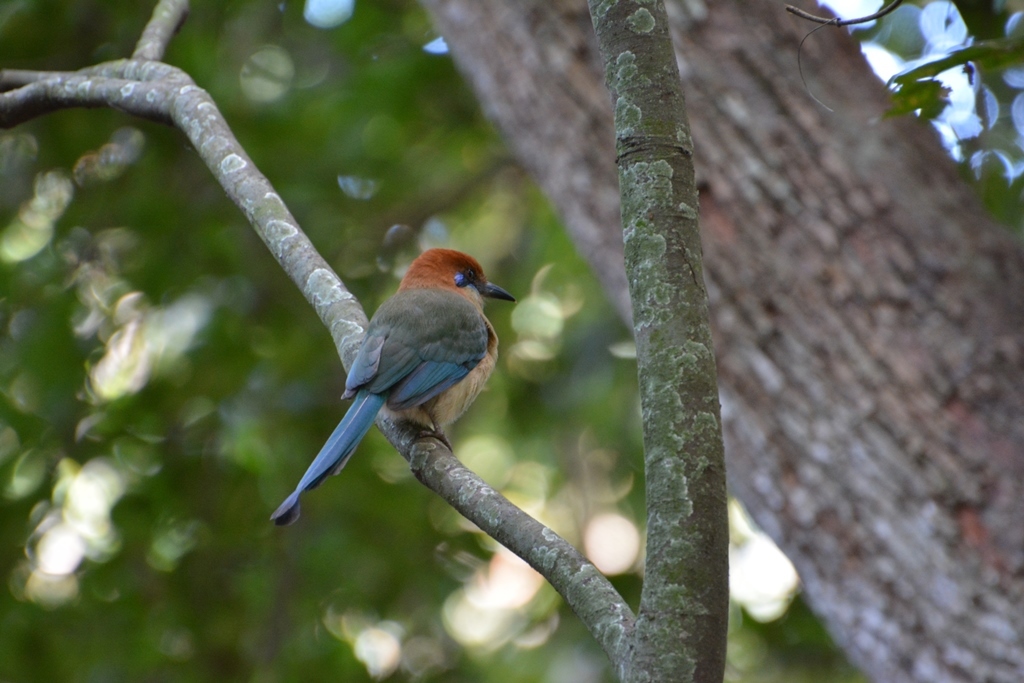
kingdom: Animalia
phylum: Chordata
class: Aves
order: Coraciiformes
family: Momotidae
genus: Momotus
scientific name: Momotus mexicanus
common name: Russet-crowned motmot
